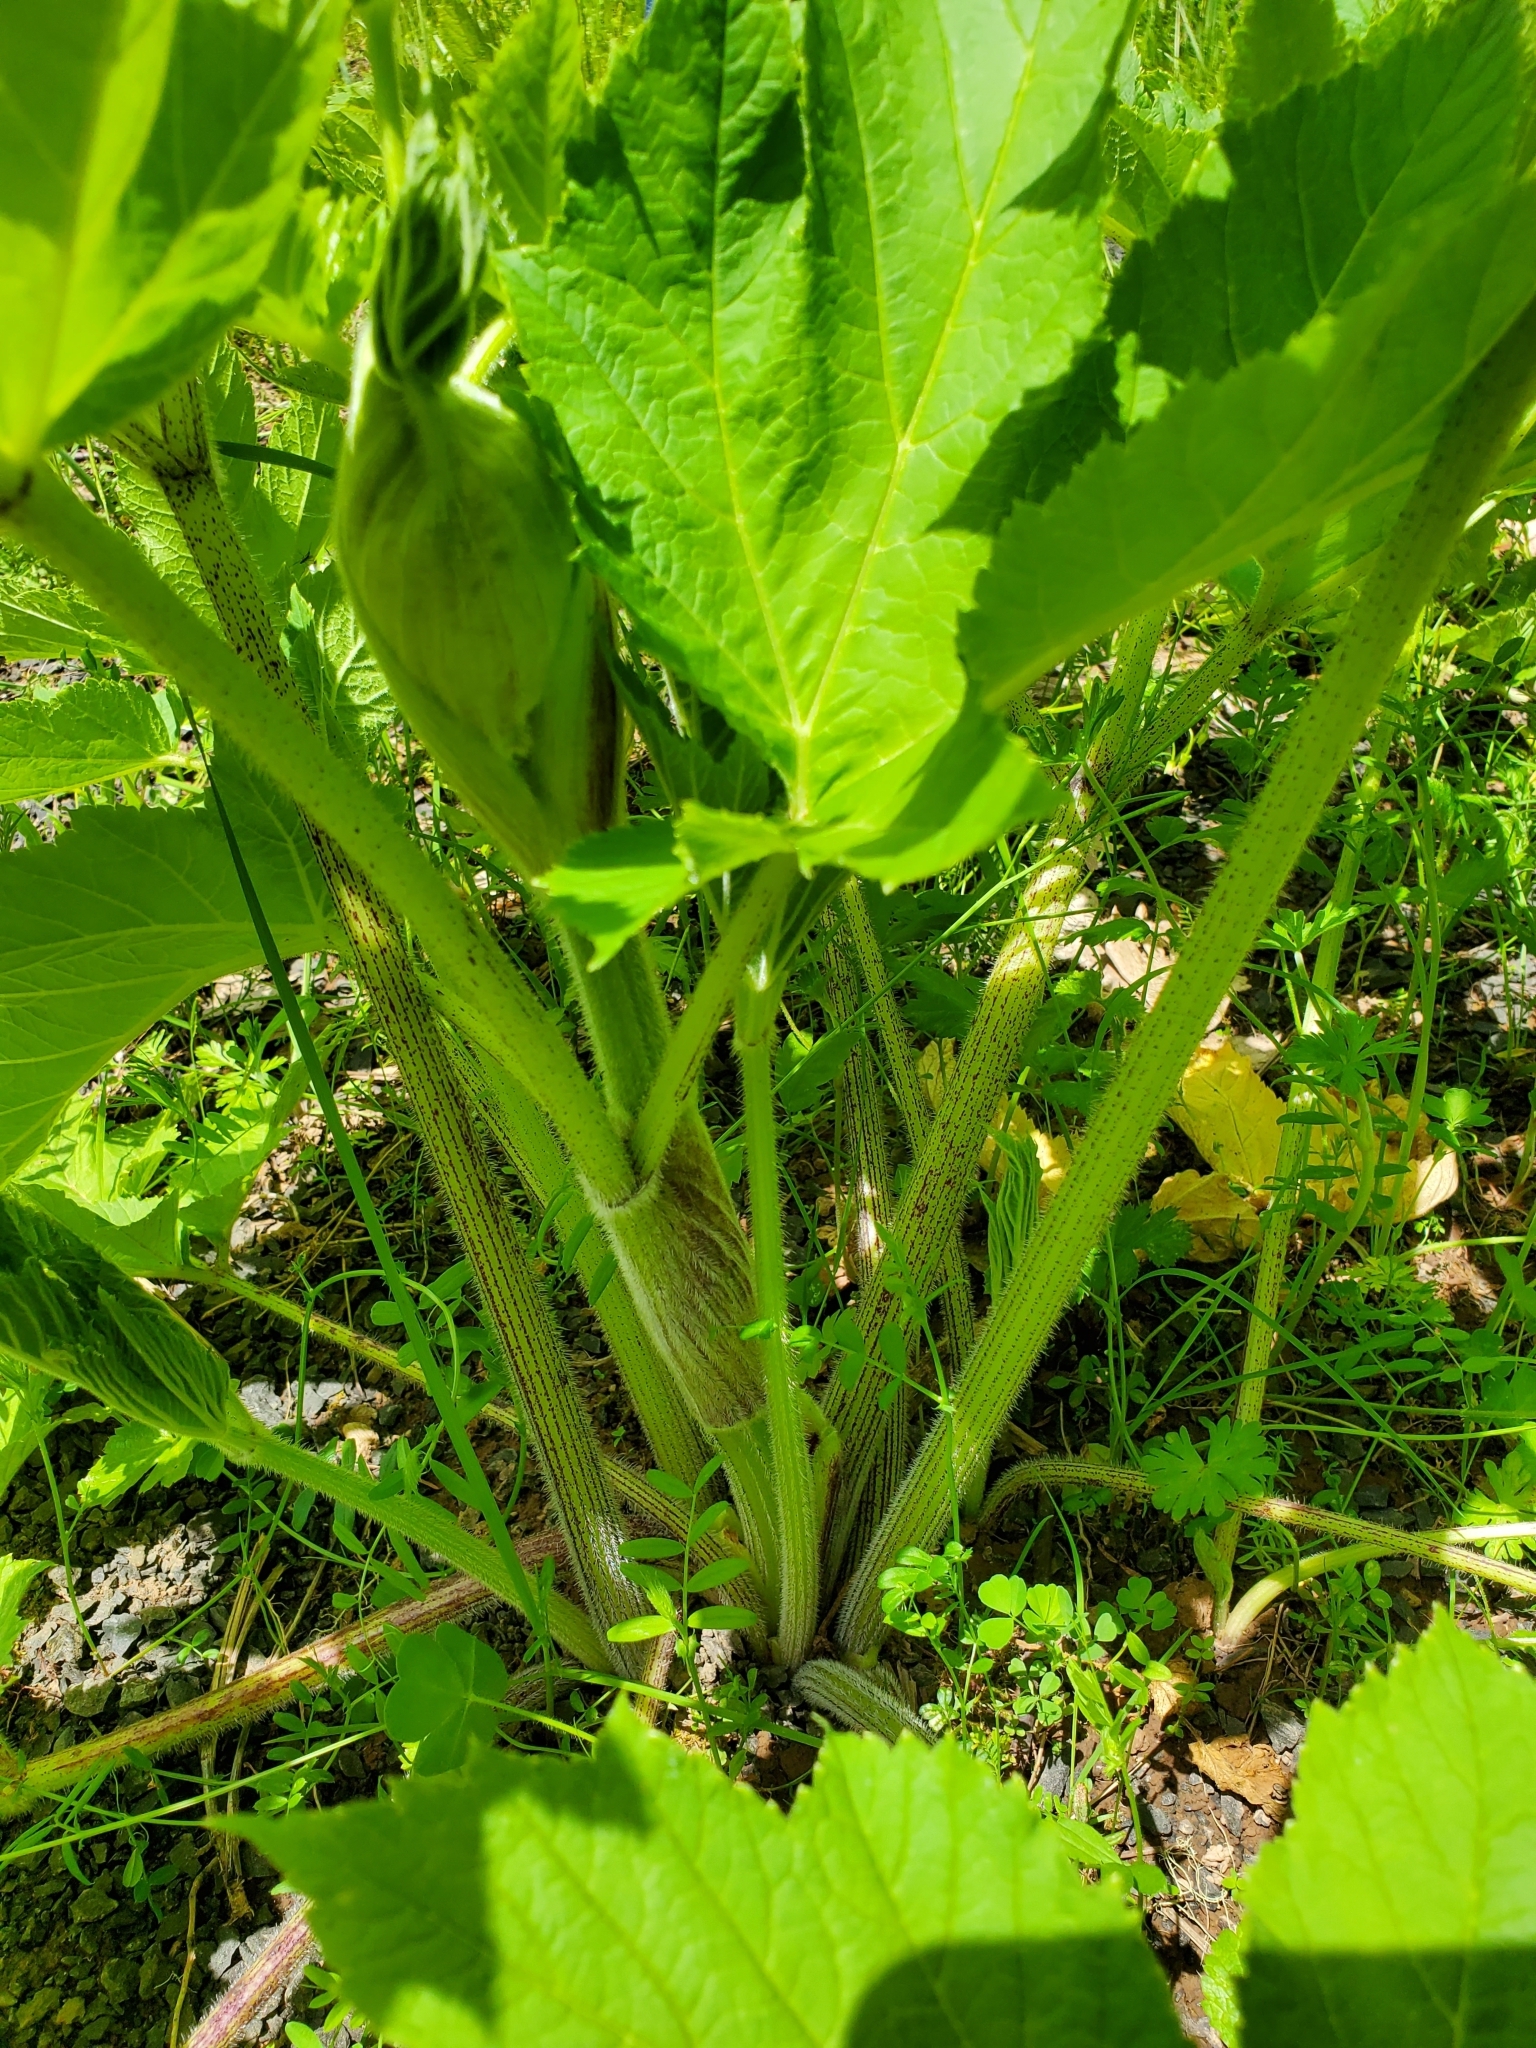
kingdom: Plantae
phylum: Tracheophyta
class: Magnoliopsida
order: Apiales
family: Apiaceae
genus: Heracleum
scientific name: Heracleum maximum
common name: American cow parsnip
